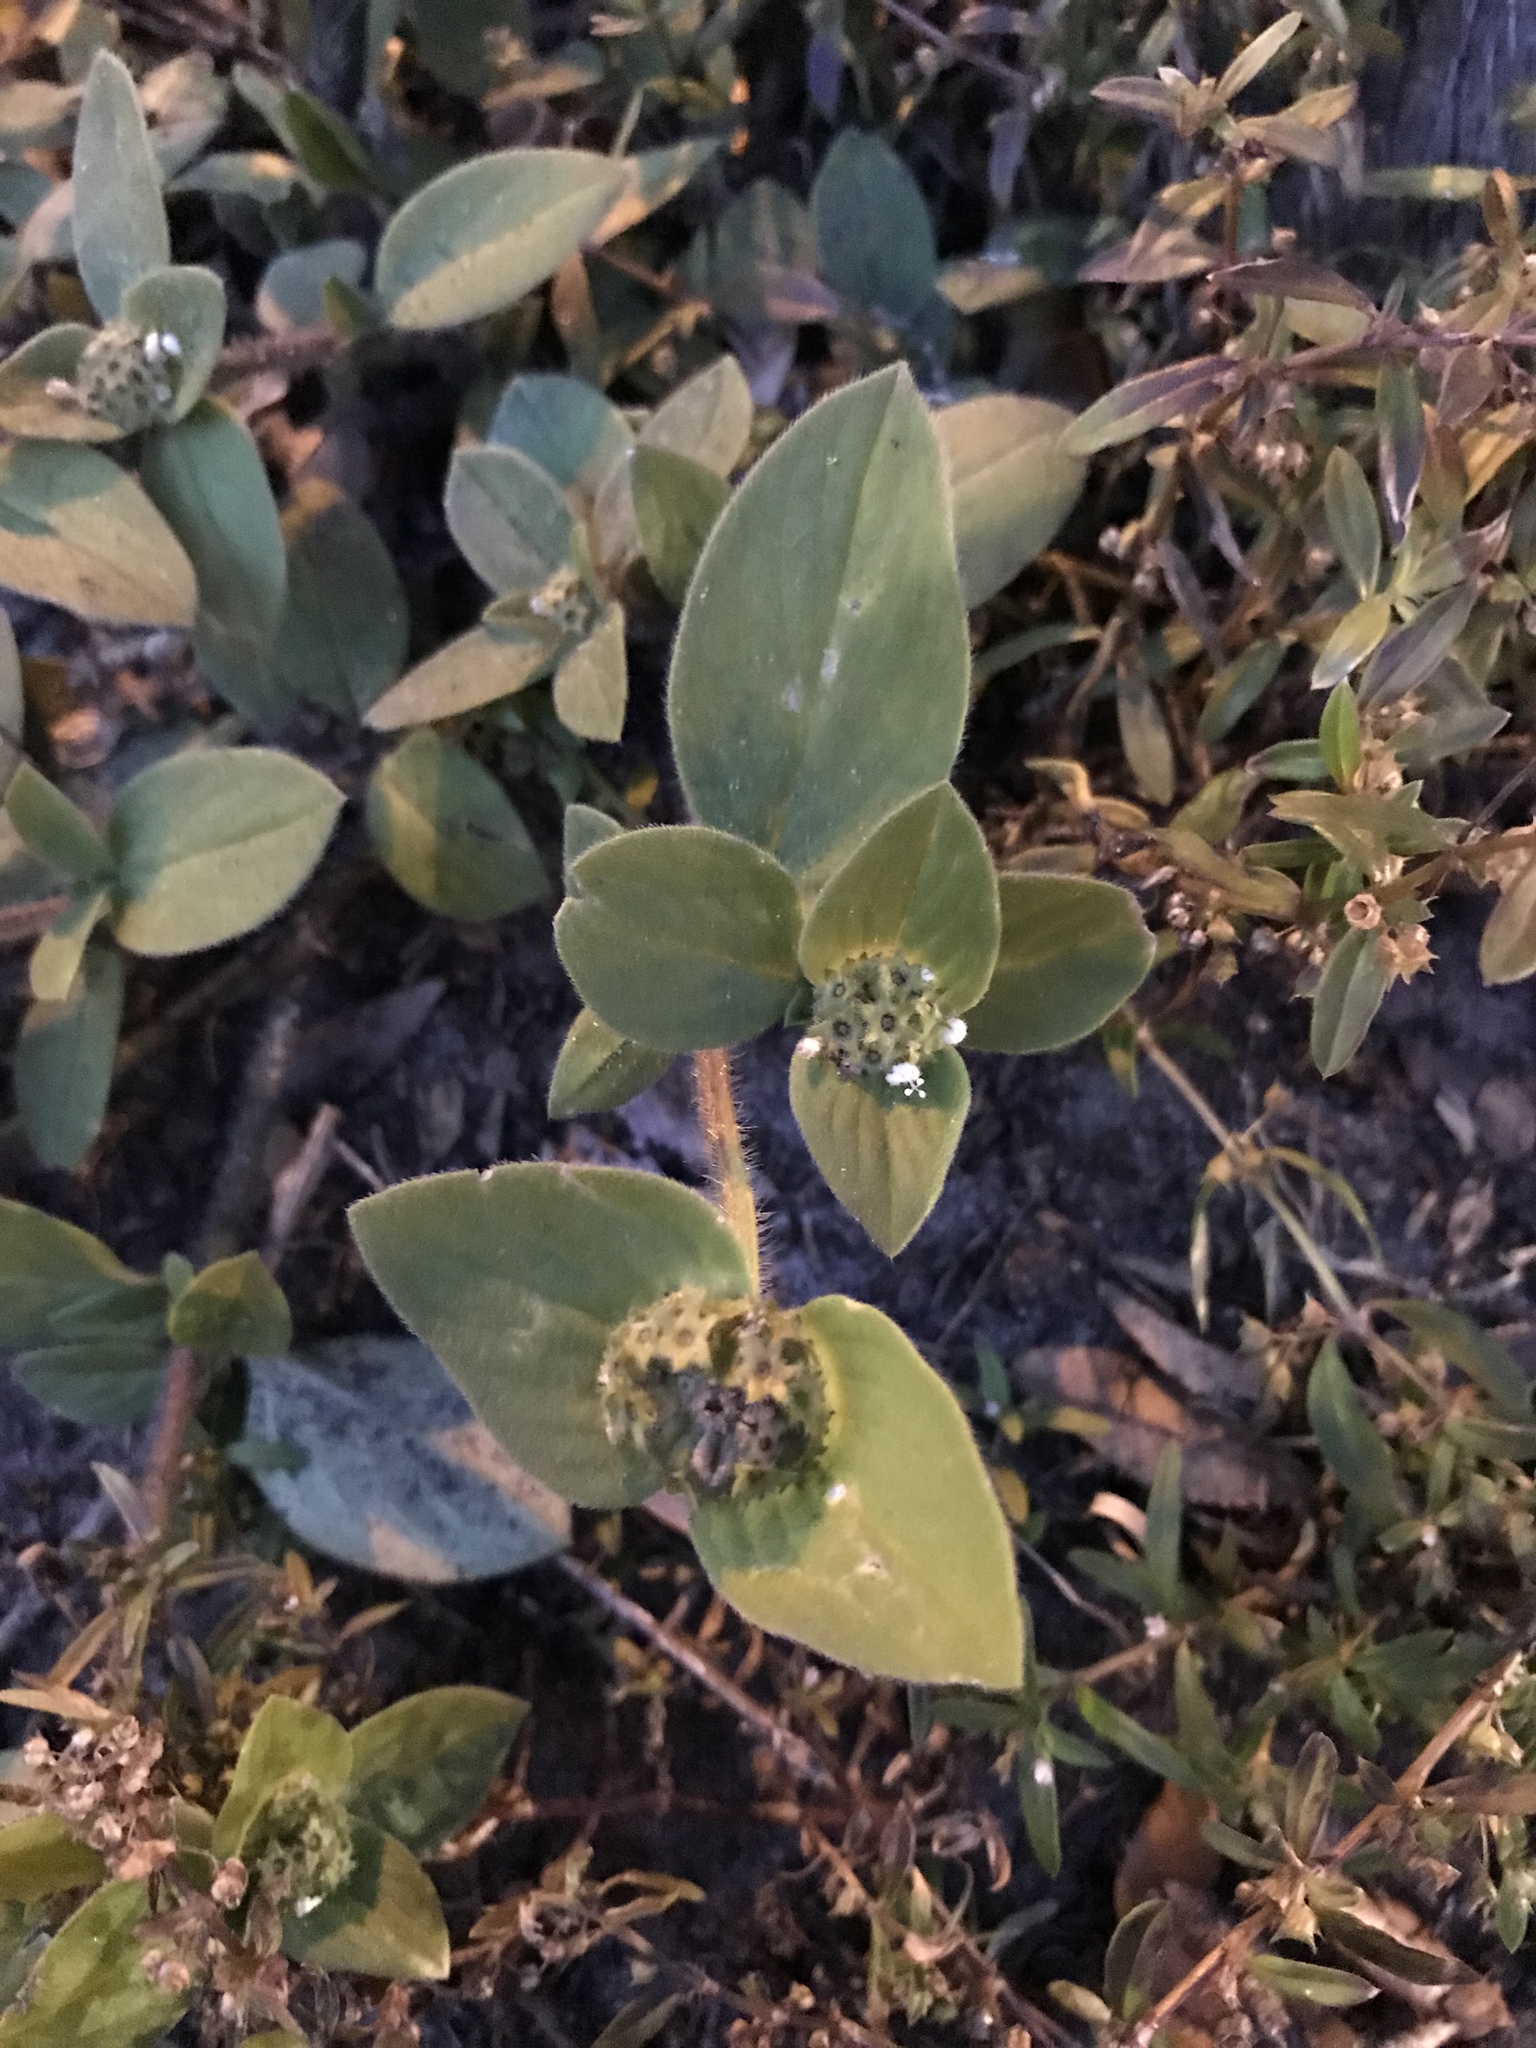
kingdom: Plantae
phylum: Tracheophyta
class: Magnoliopsida
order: Gentianales
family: Rubiaceae
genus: Richardia
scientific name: Richardia scabra
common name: Rough mexican clover
